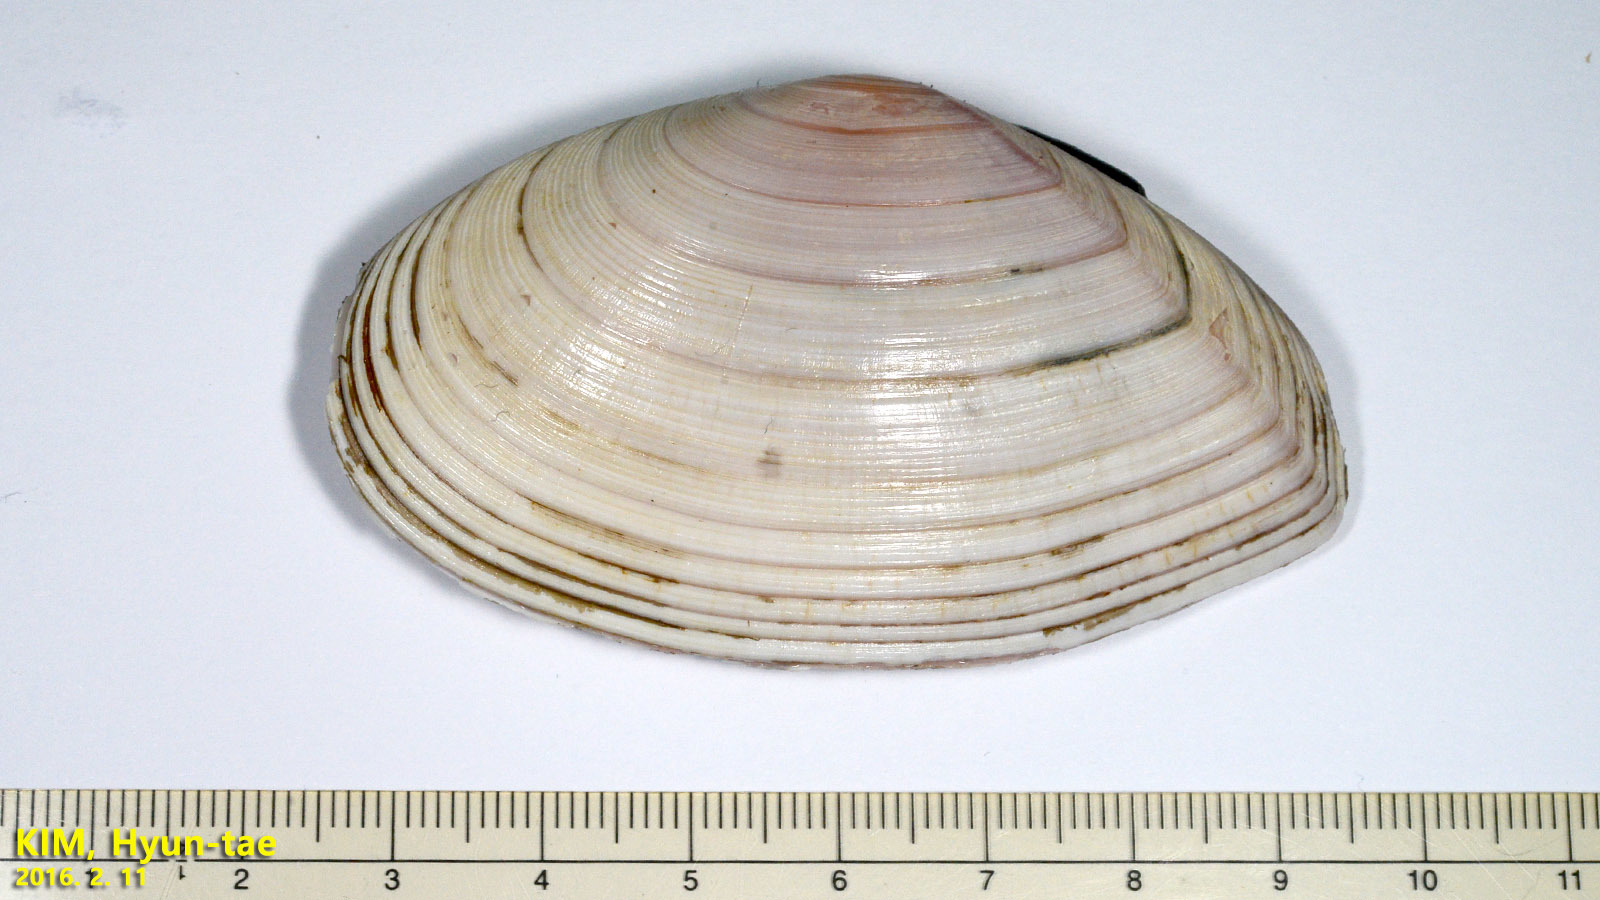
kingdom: Animalia
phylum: Mollusca
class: Bivalvia
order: Cardiida
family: Tellinidae
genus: Megangulus
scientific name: Megangulus zyonoensis
